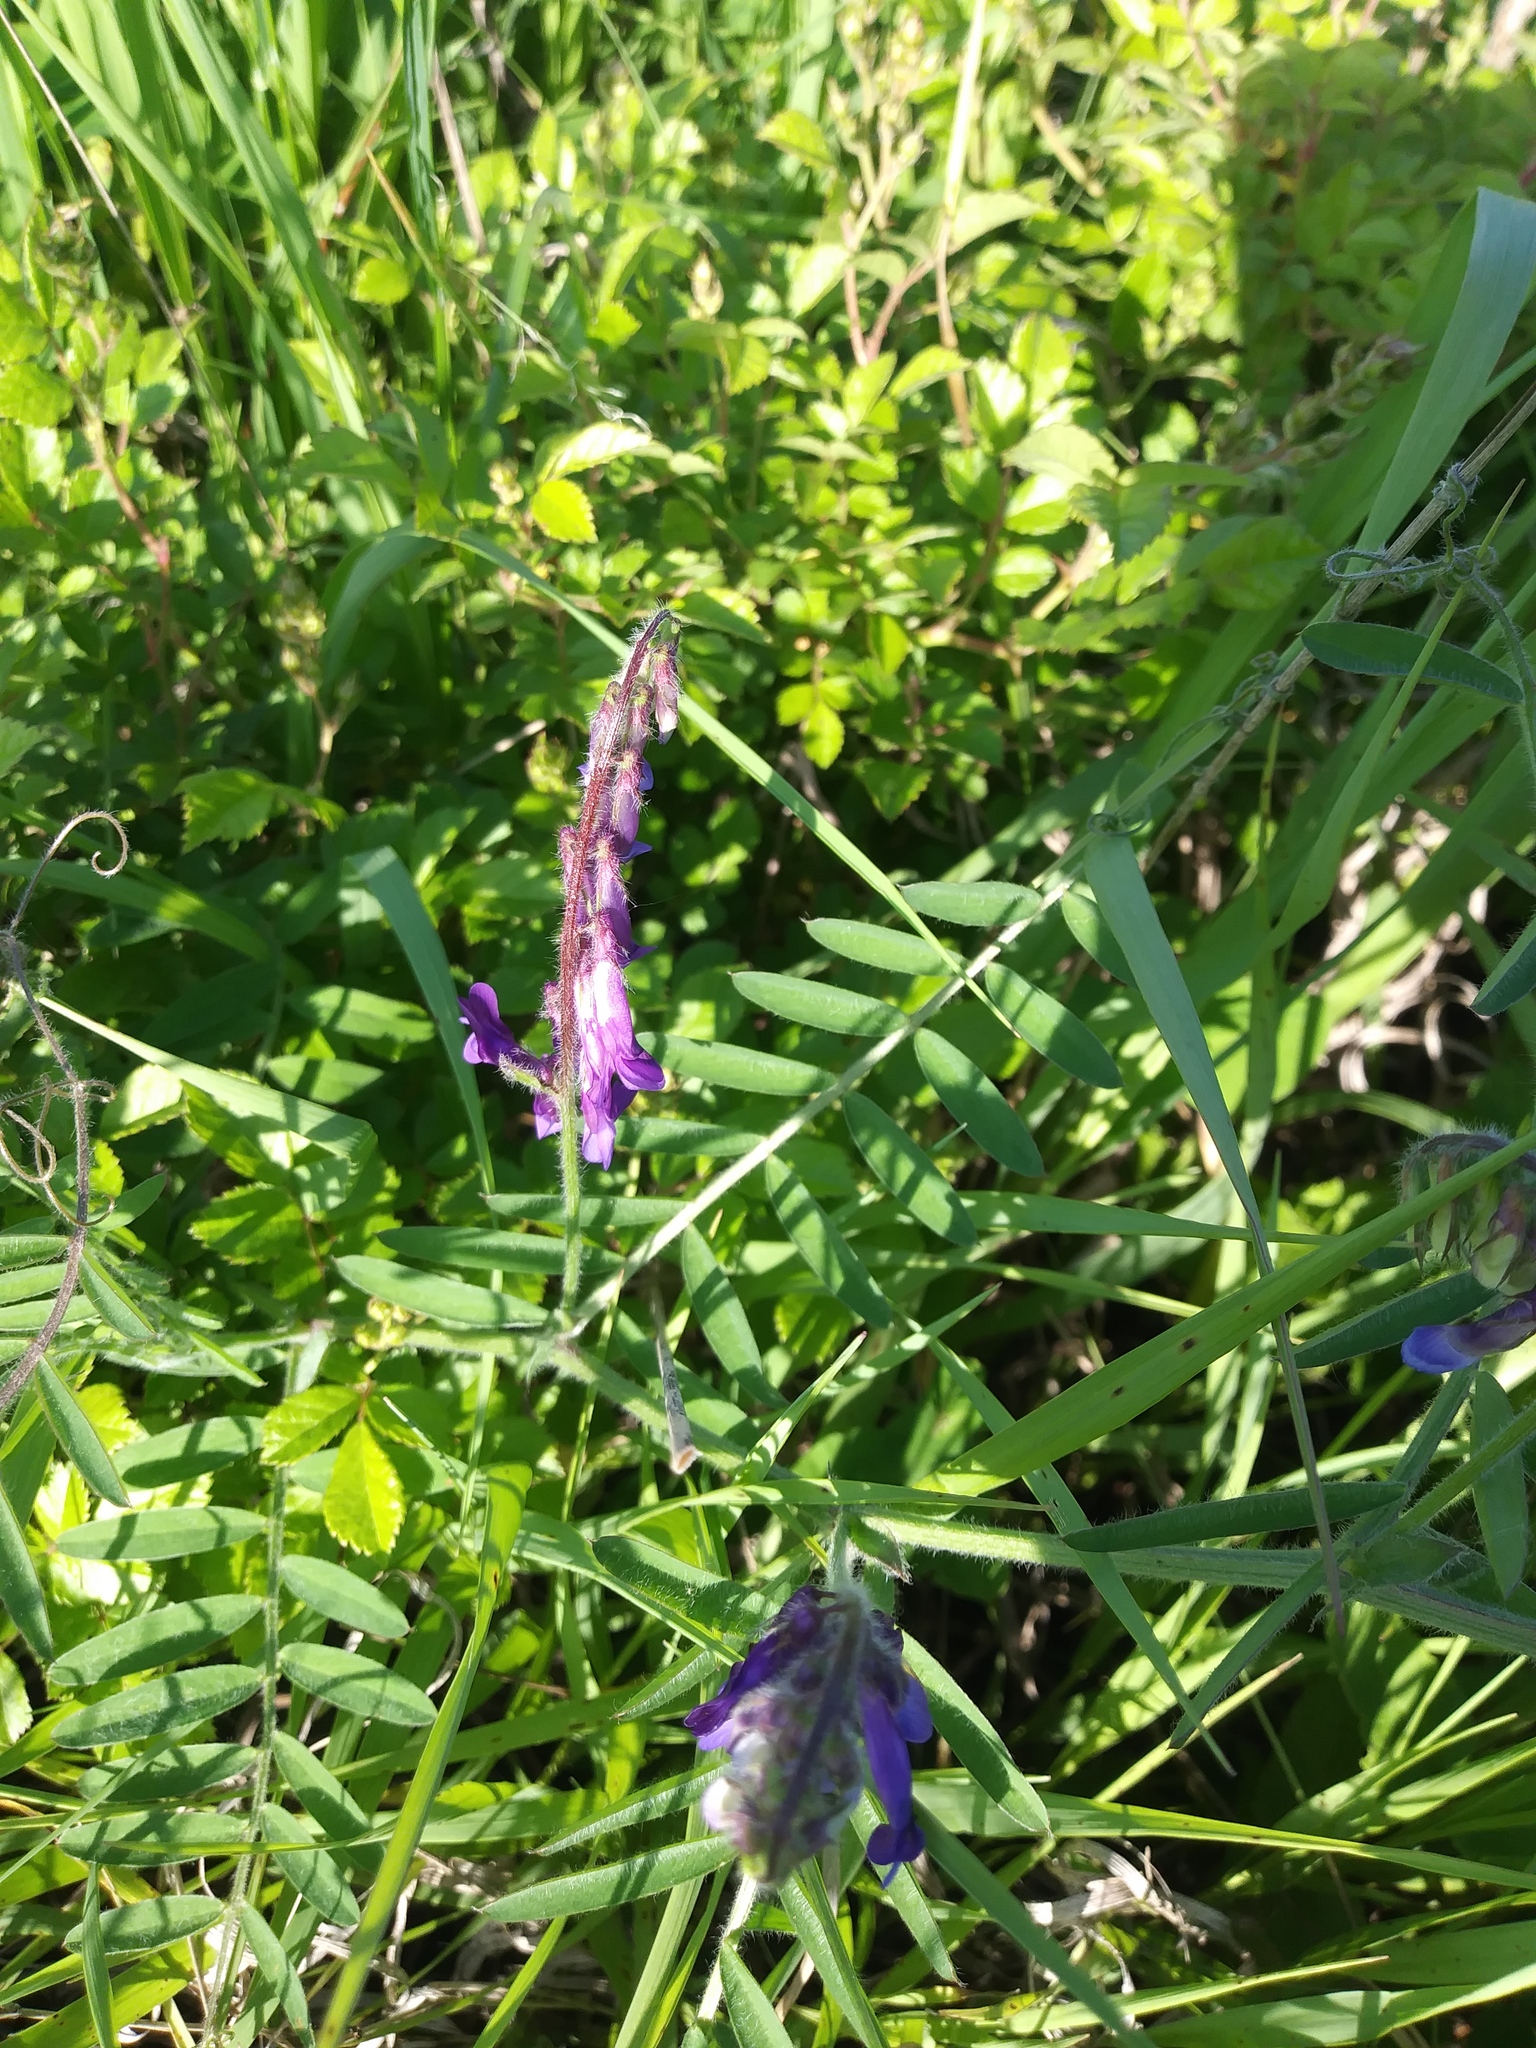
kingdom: Plantae
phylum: Tracheophyta
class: Magnoliopsida
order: Fabales
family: Fabaceae
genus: Vicia
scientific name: Vicia villosa
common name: Fodder vetch
